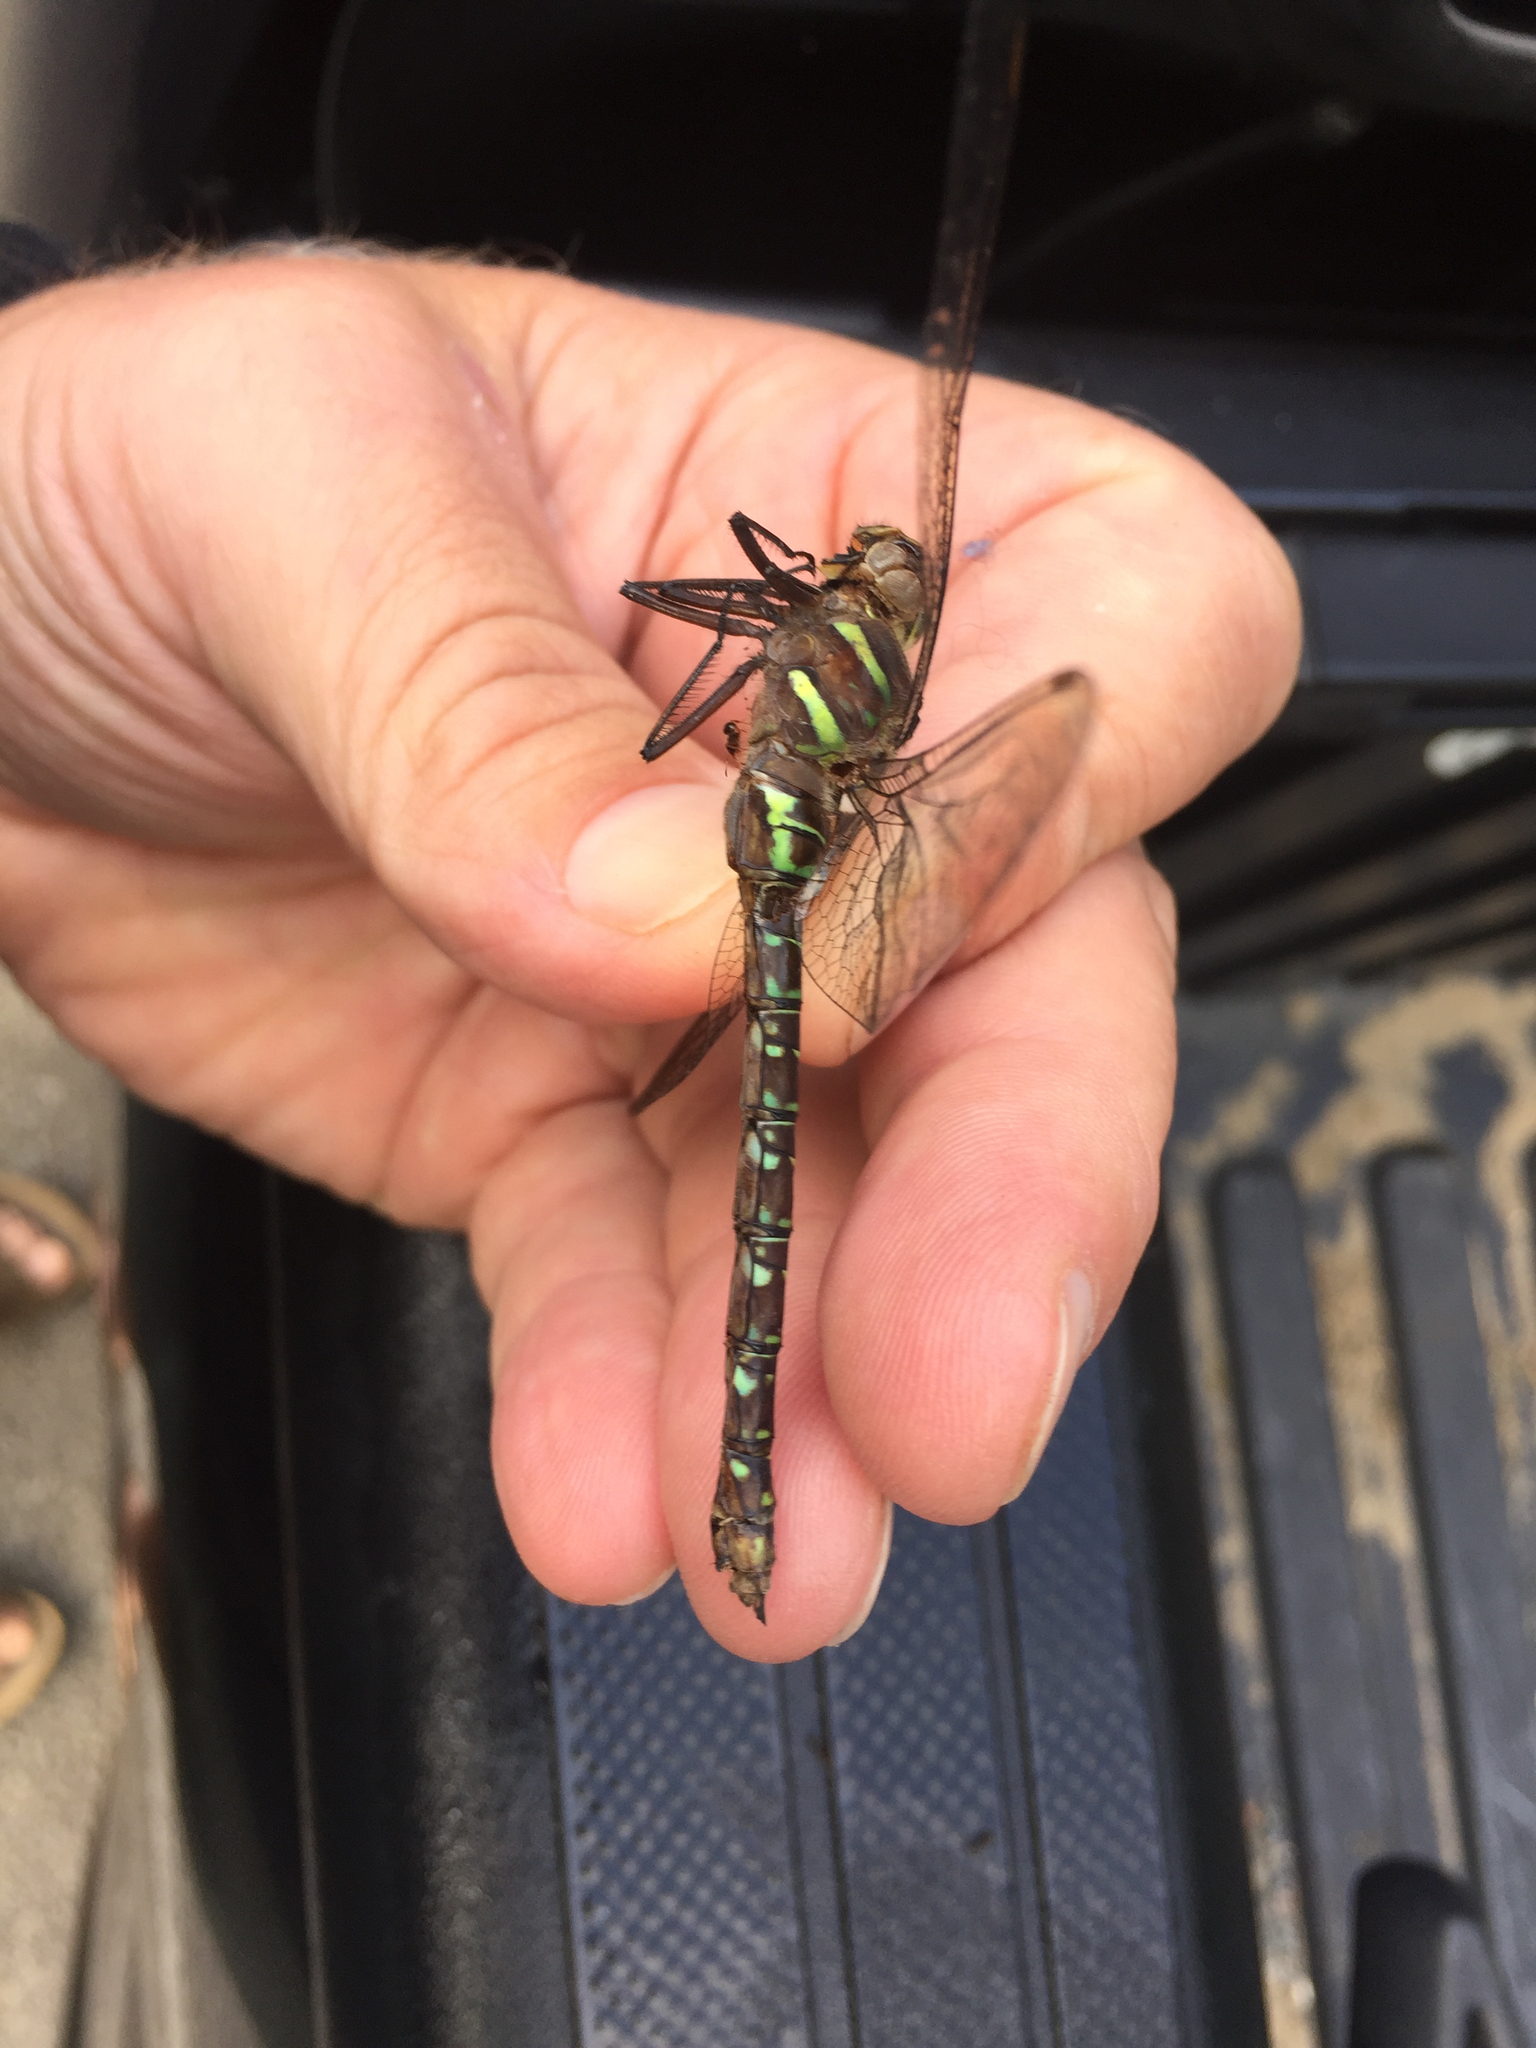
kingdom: Animalia
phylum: Arthropoda
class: Insecta
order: Odonata
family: Aeshnidae
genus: Aeshna
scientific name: Aeshna umbrosa
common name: Shadow darner
